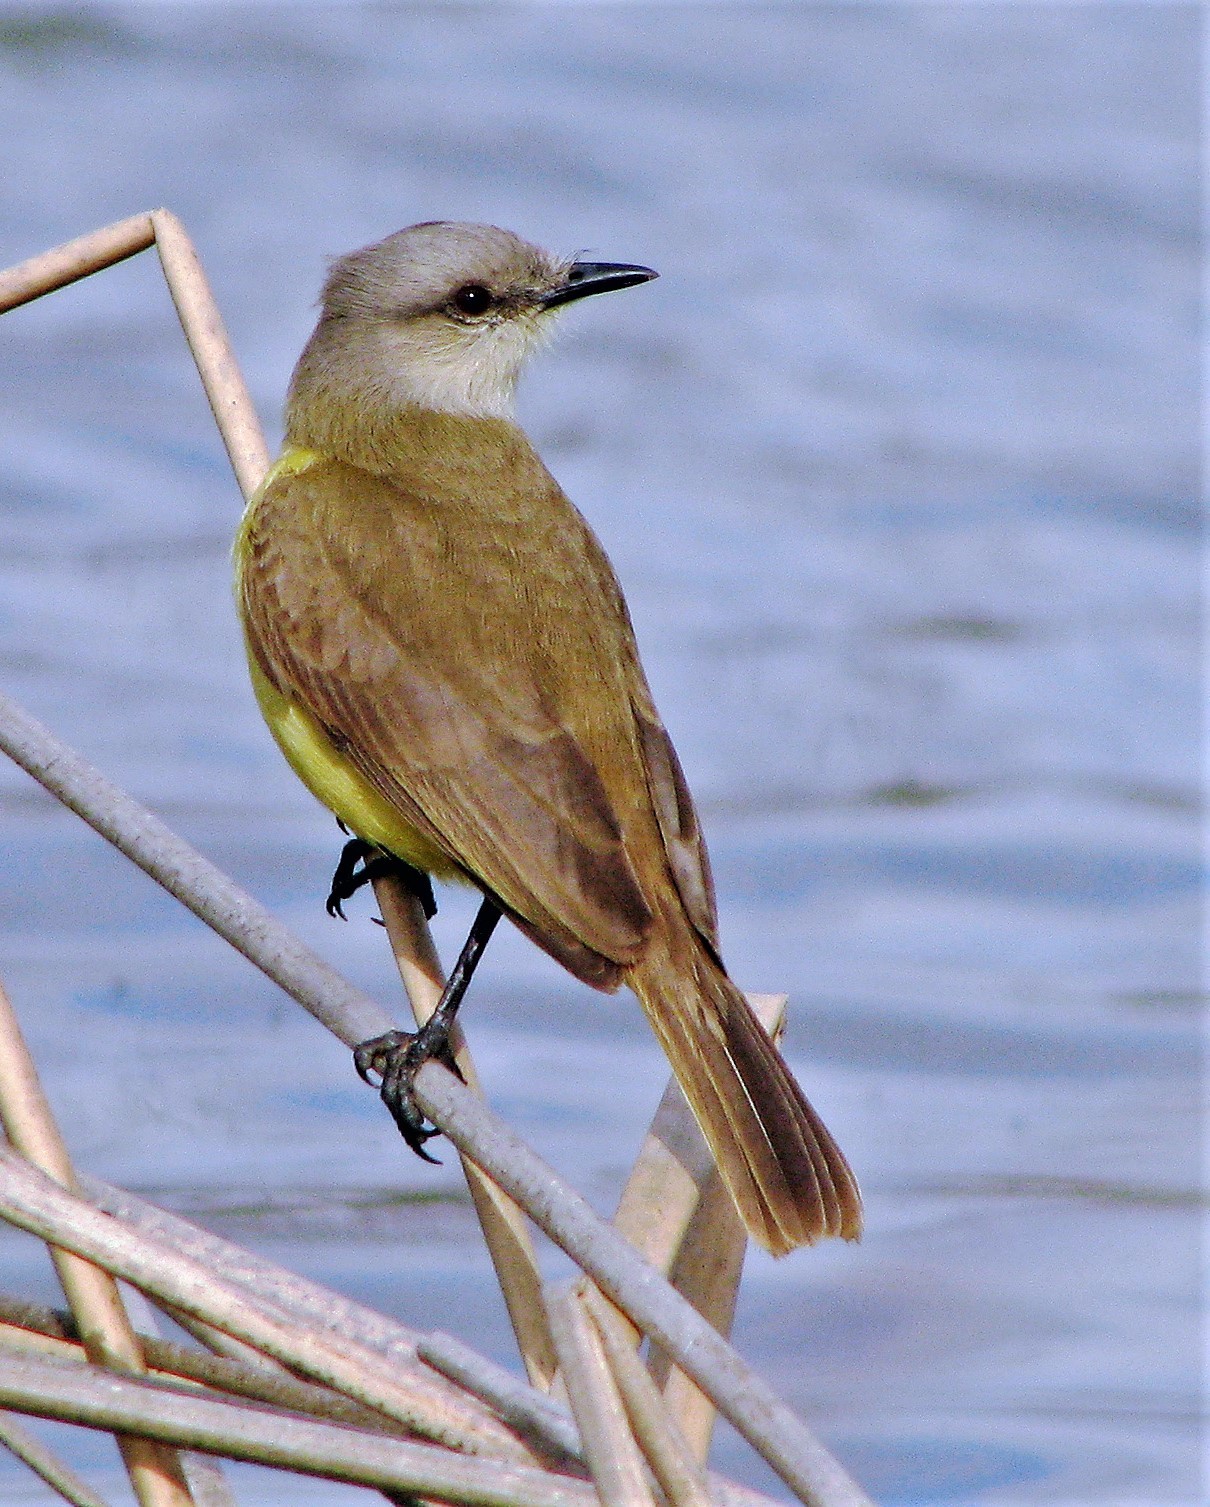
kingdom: Animalia
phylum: Chordata
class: Aves
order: Passeriformes
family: Tyrannidae
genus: Machetornis
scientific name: Machetornis rixosa
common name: Cattle tyrant
